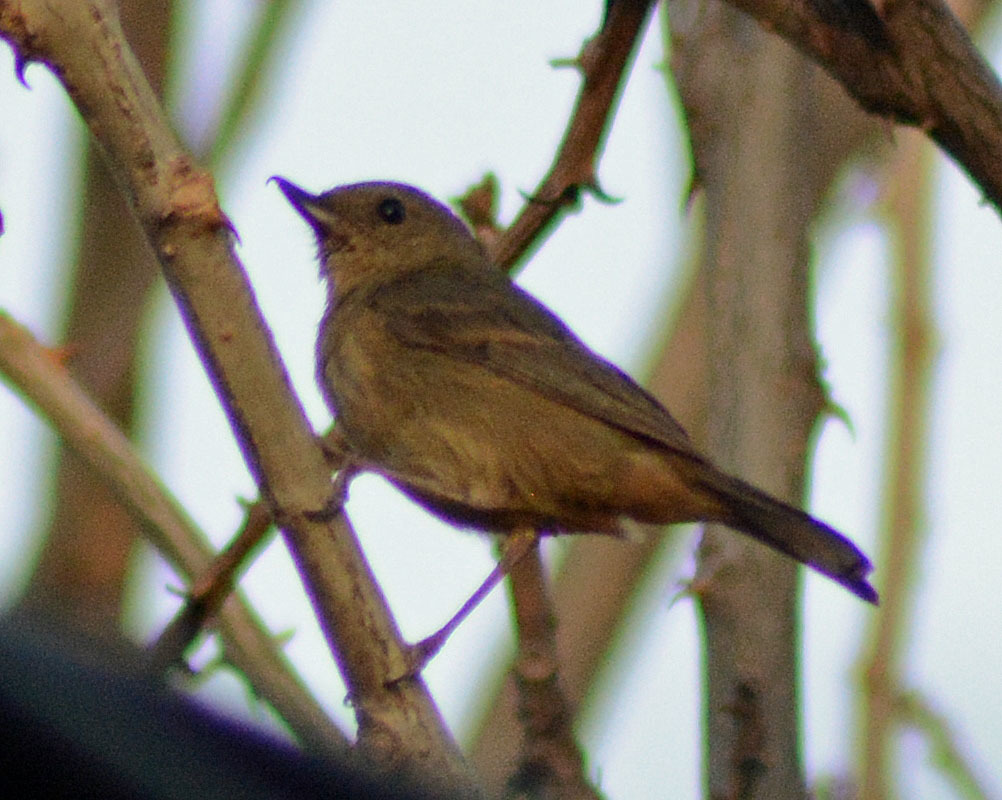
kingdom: Animalia
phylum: Chordata
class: Aves
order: Passeriformes
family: Thraupidae
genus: Diglossa
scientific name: Diglossa baritula
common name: Cinnamon-bellied flowerpiercer
